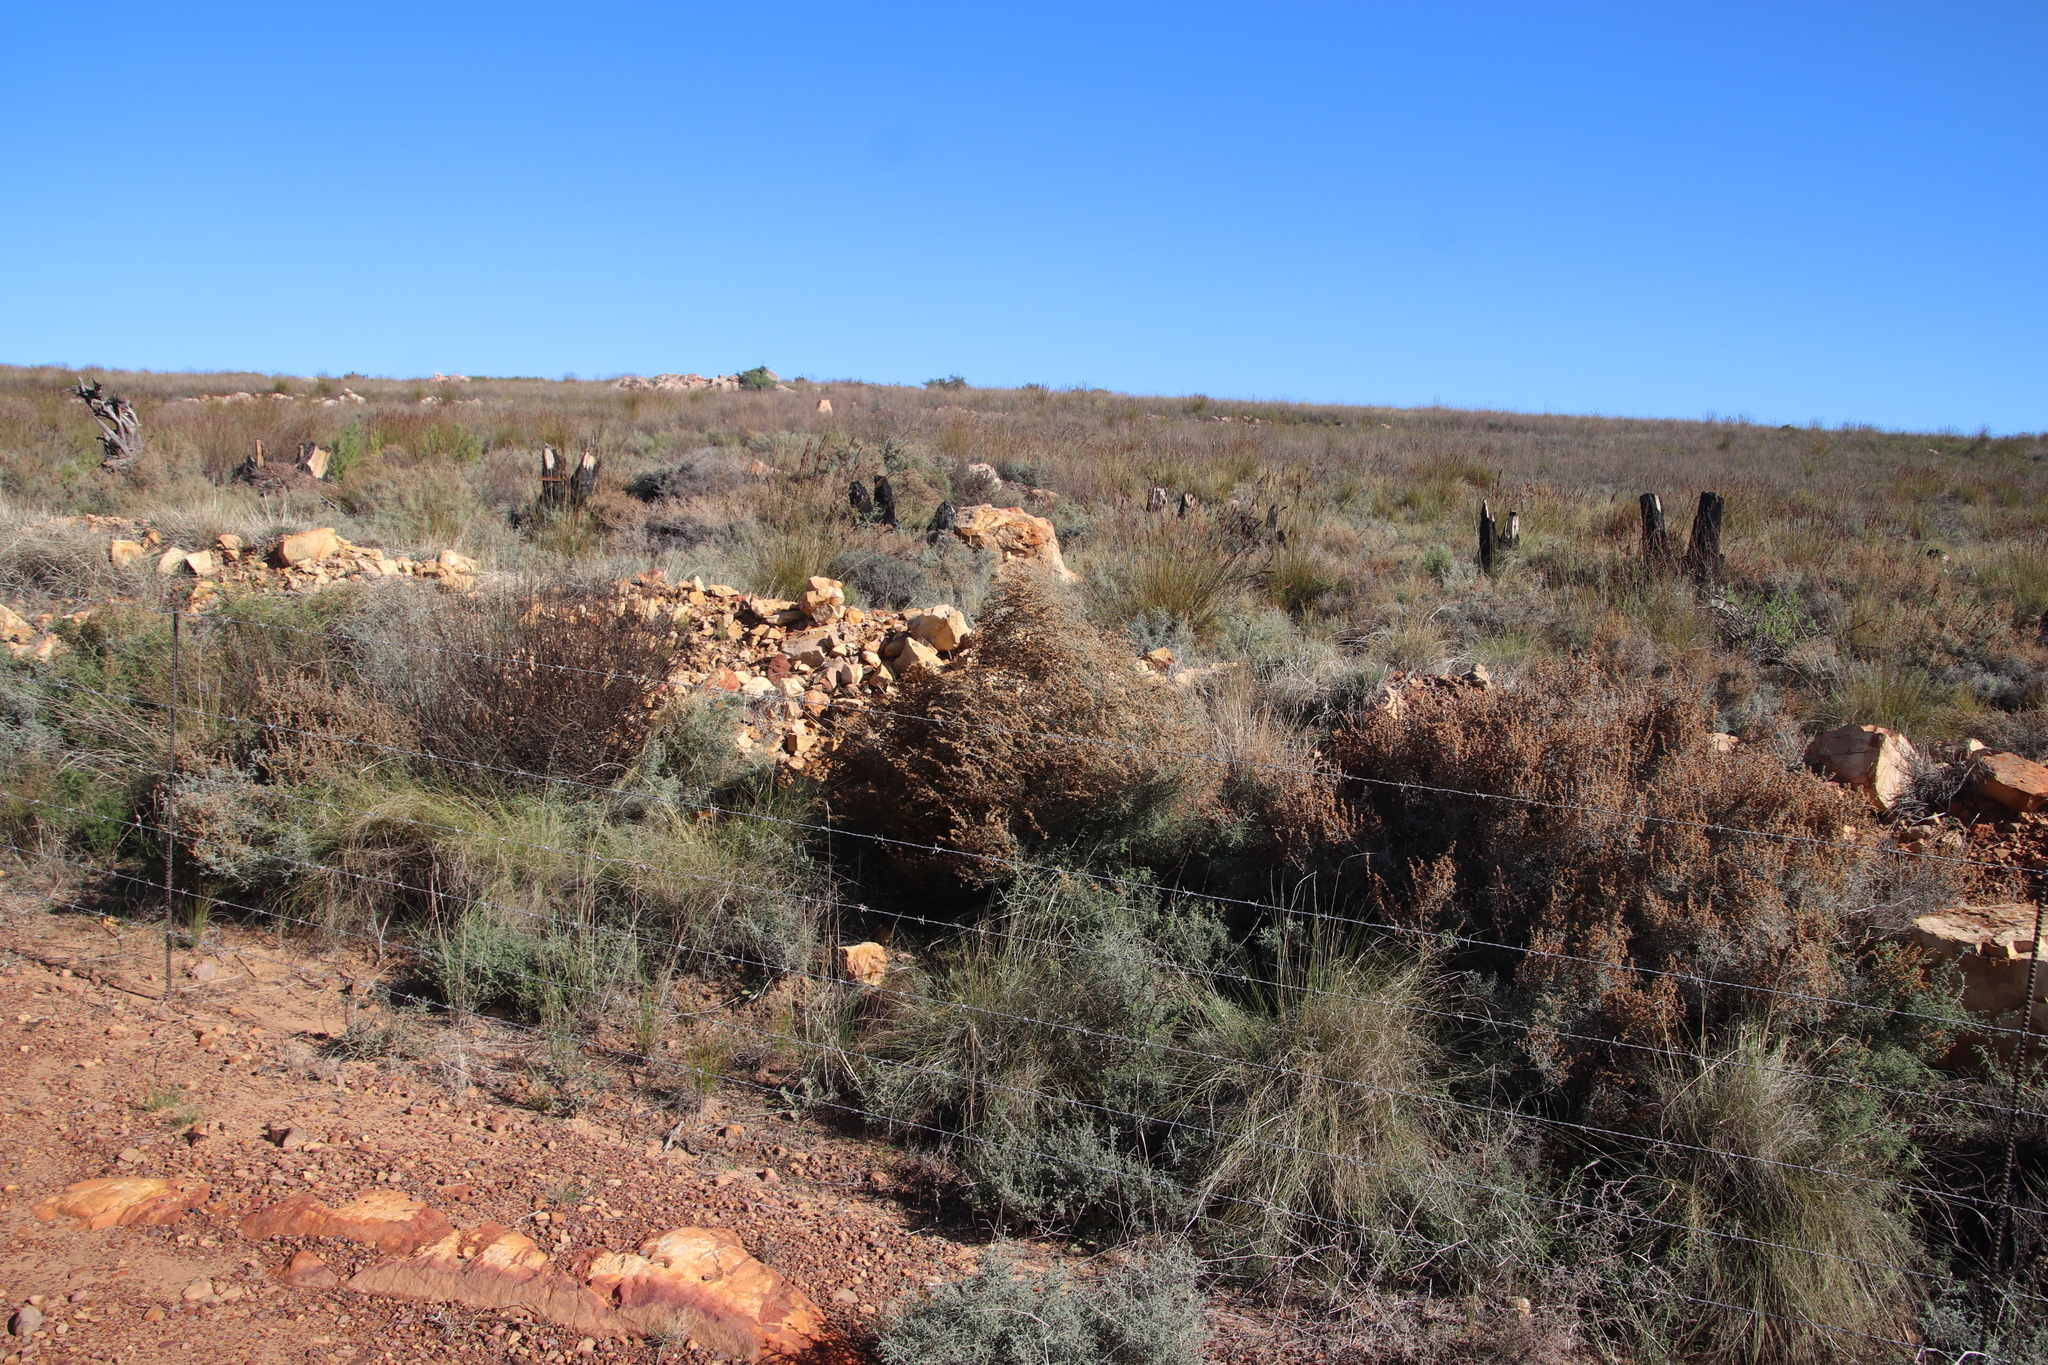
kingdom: Plantae
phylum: Tracheophyta
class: Magnoliopsida
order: Asterales
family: Asteraceae
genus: Seriphium
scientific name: Seriphium plumosum
